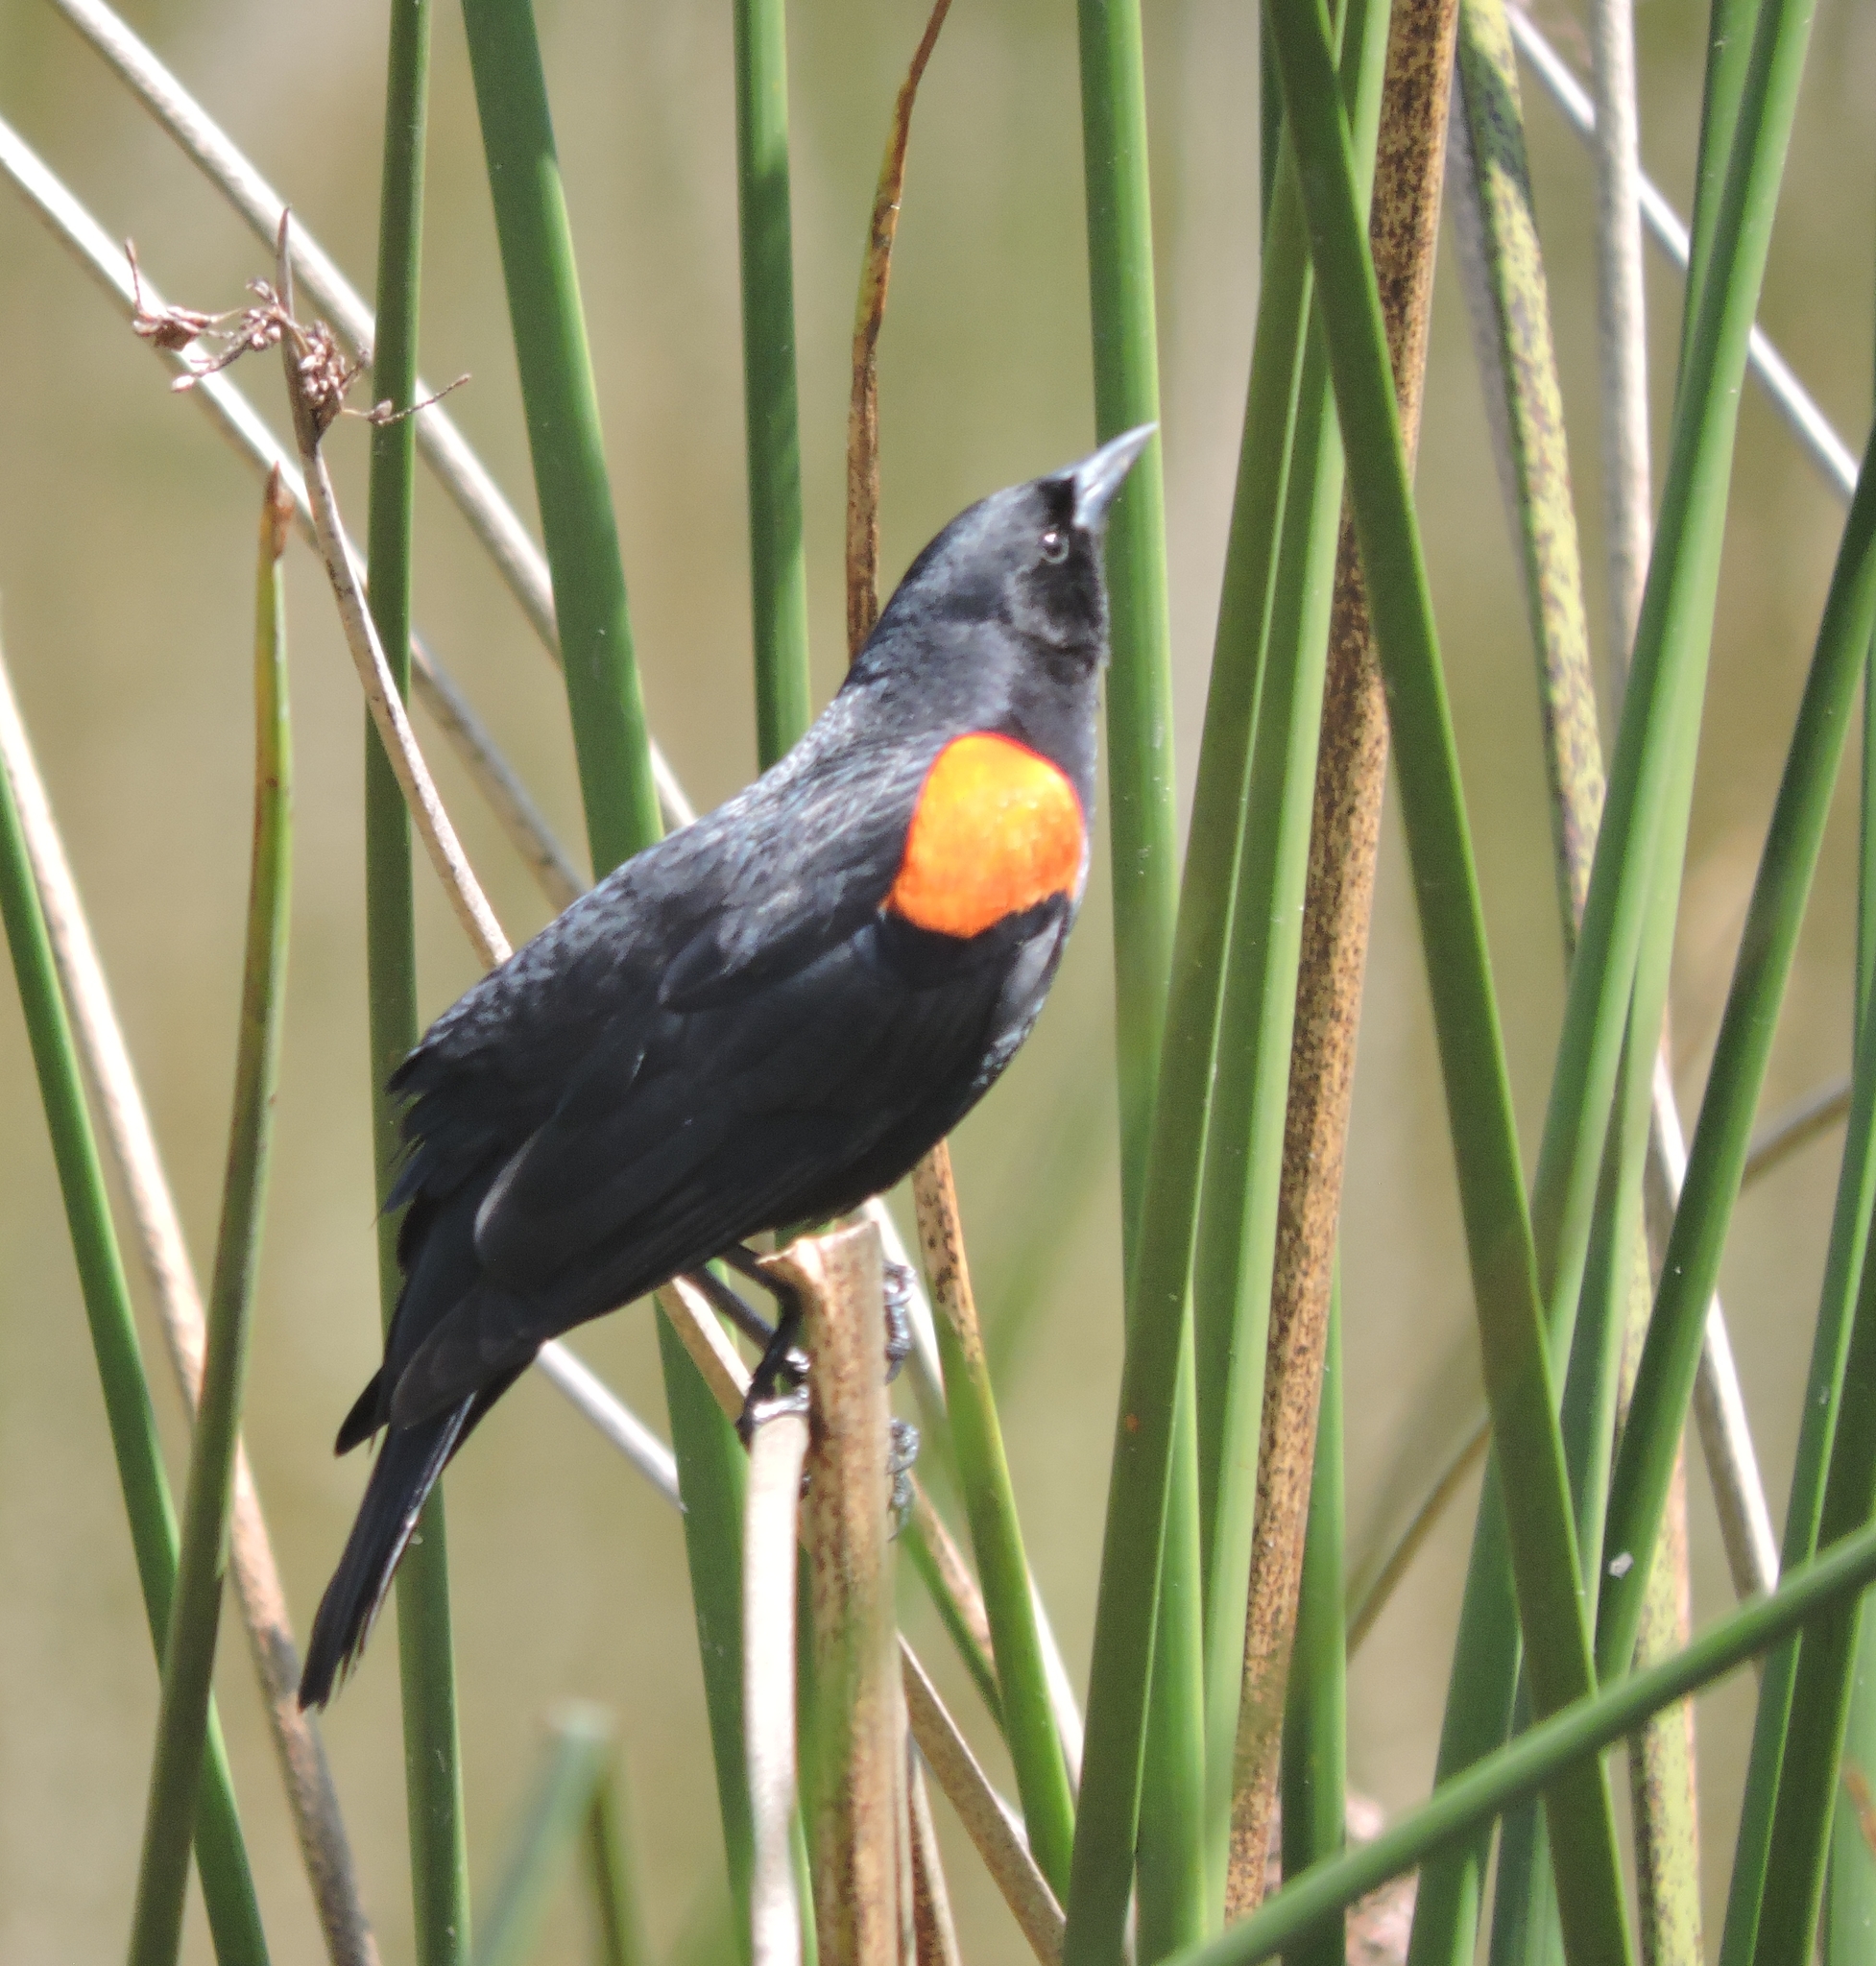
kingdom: Animalia
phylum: Chordata
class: Aves
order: Passeriformes
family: Icteridae
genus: Agelaius
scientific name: Agelaius phoeniceus
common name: Red-winged blackbird
